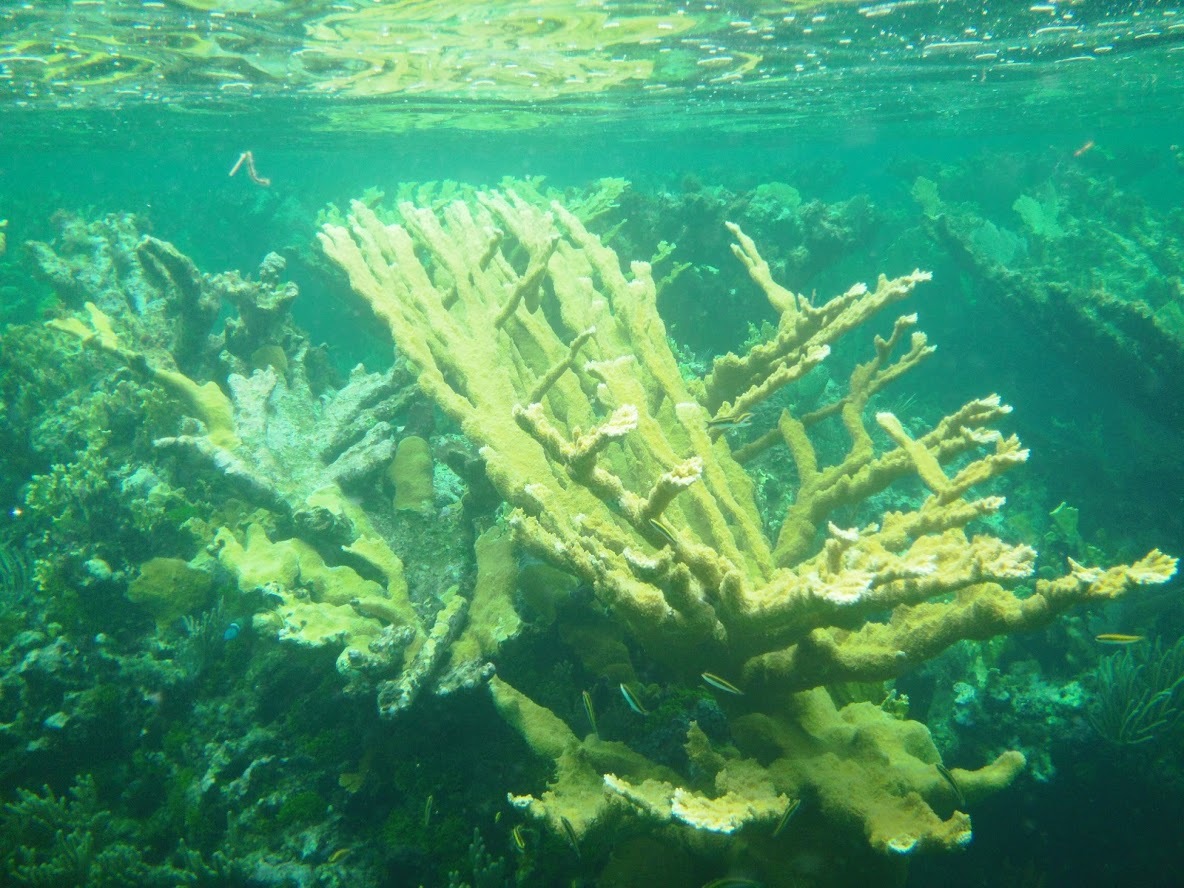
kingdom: Animalia
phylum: Cnidaria
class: Anthozoa
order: Scleractinia
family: Acroporidae
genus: Acropora
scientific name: Acropora palmata
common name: Elkhorn coral
